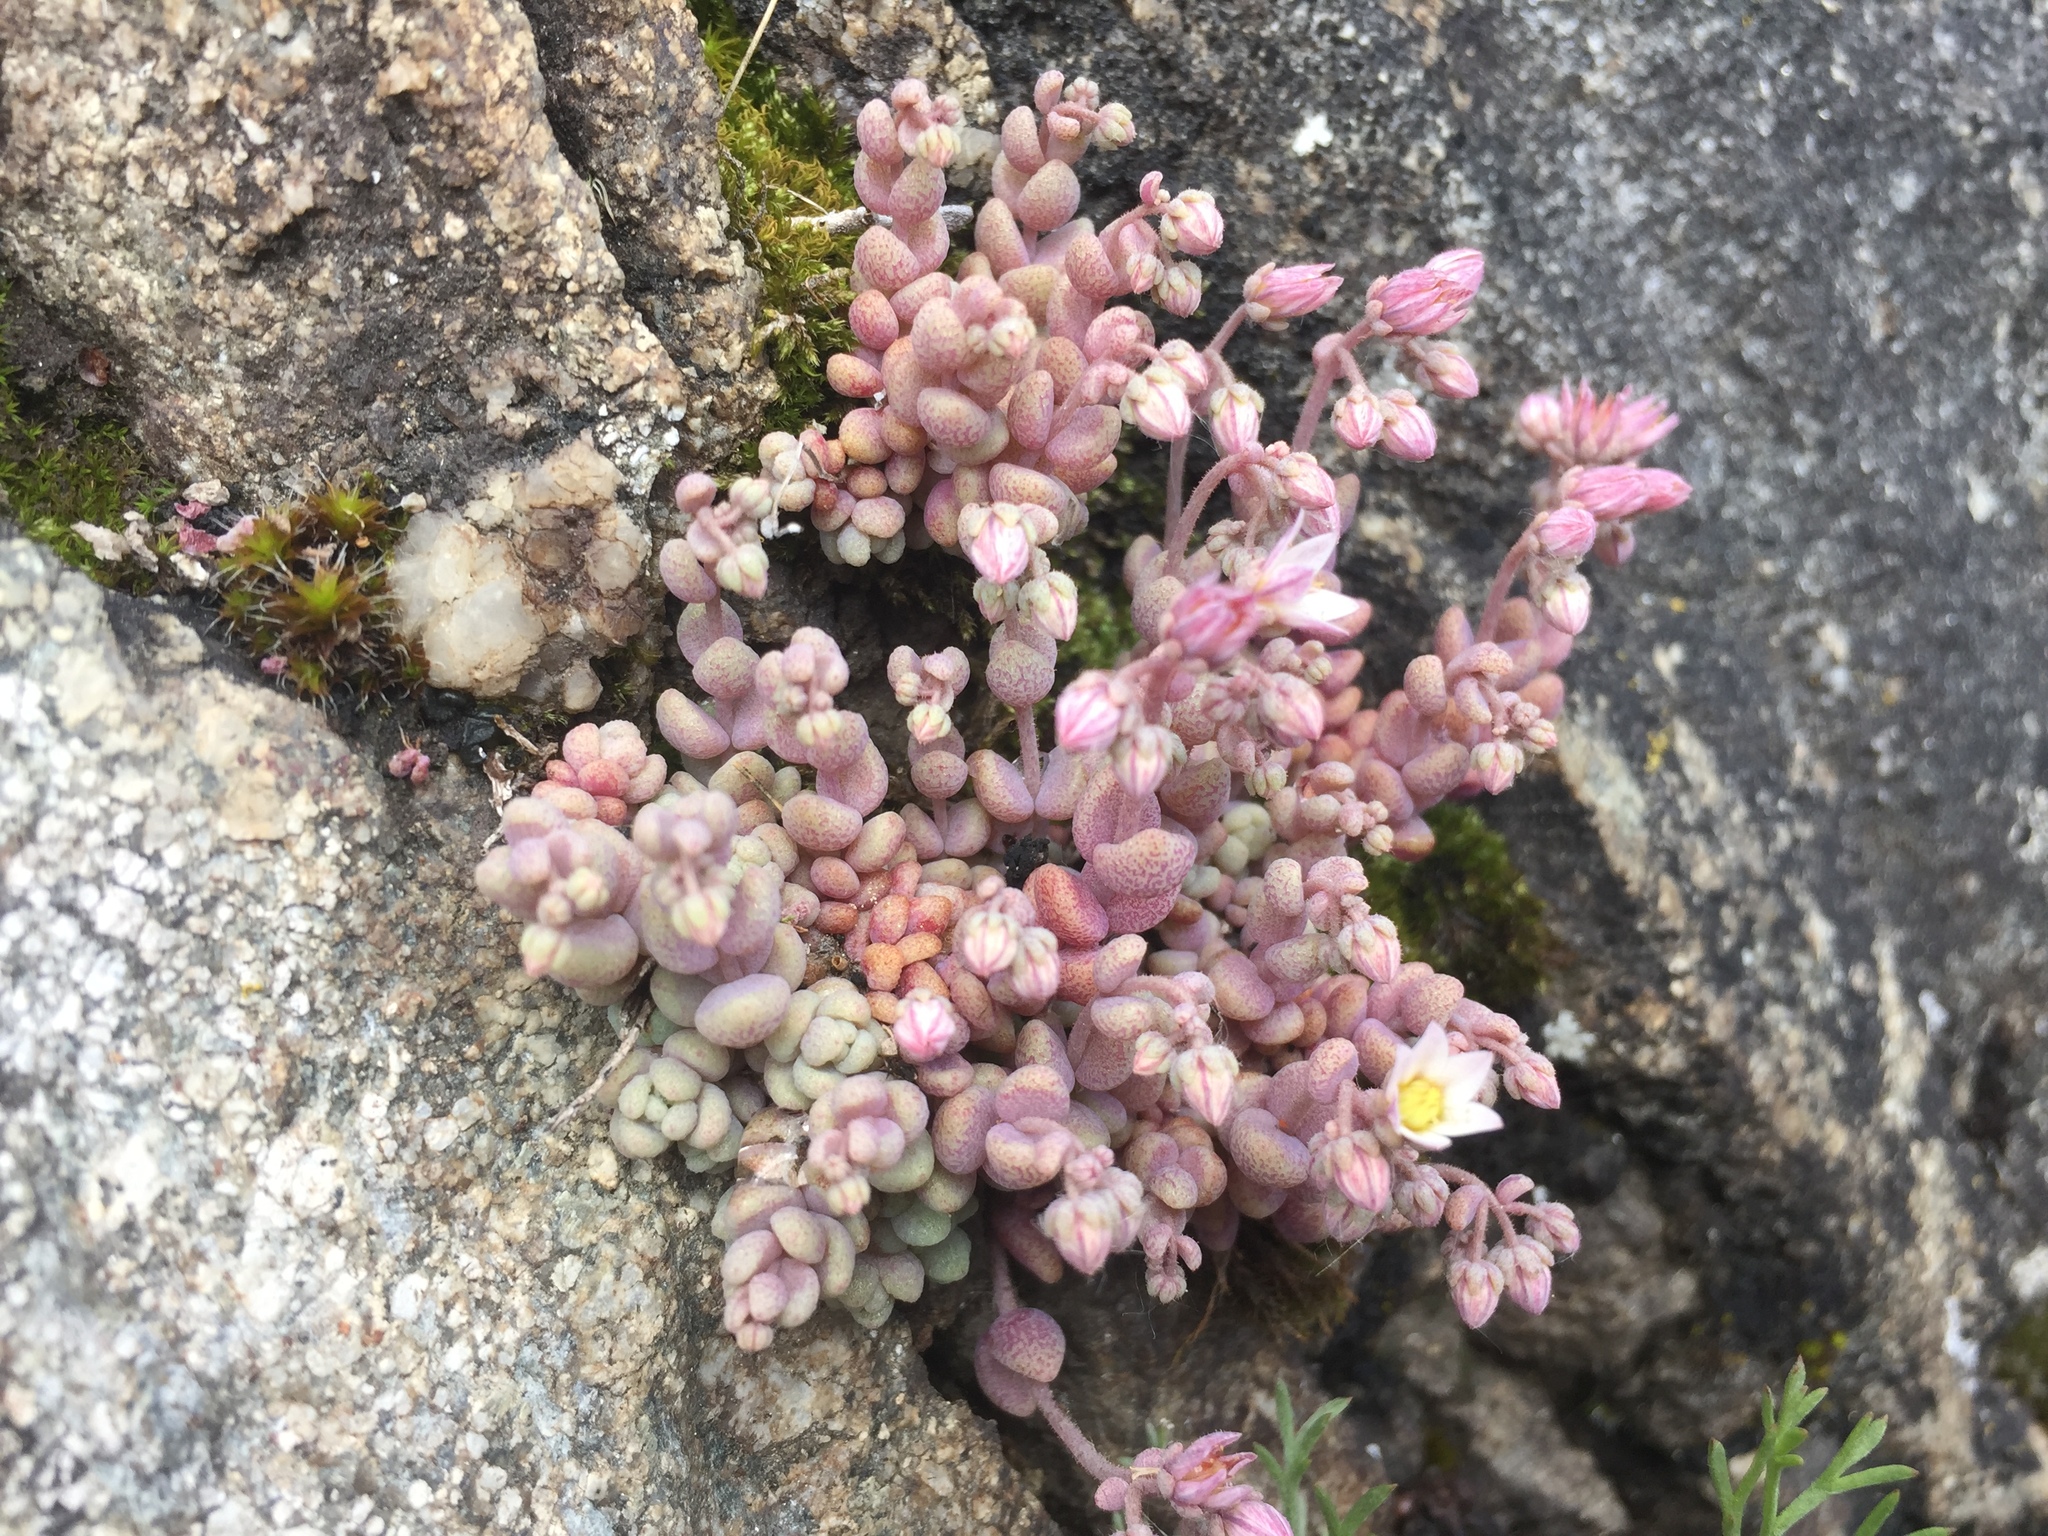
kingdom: Plantae
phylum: Tracheophyta
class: Magnoliopsida
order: Saxifragales
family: Crassulaceae
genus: Sedum
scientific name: Sedum dasyphyllum
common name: Thick-leaf stonecrop
